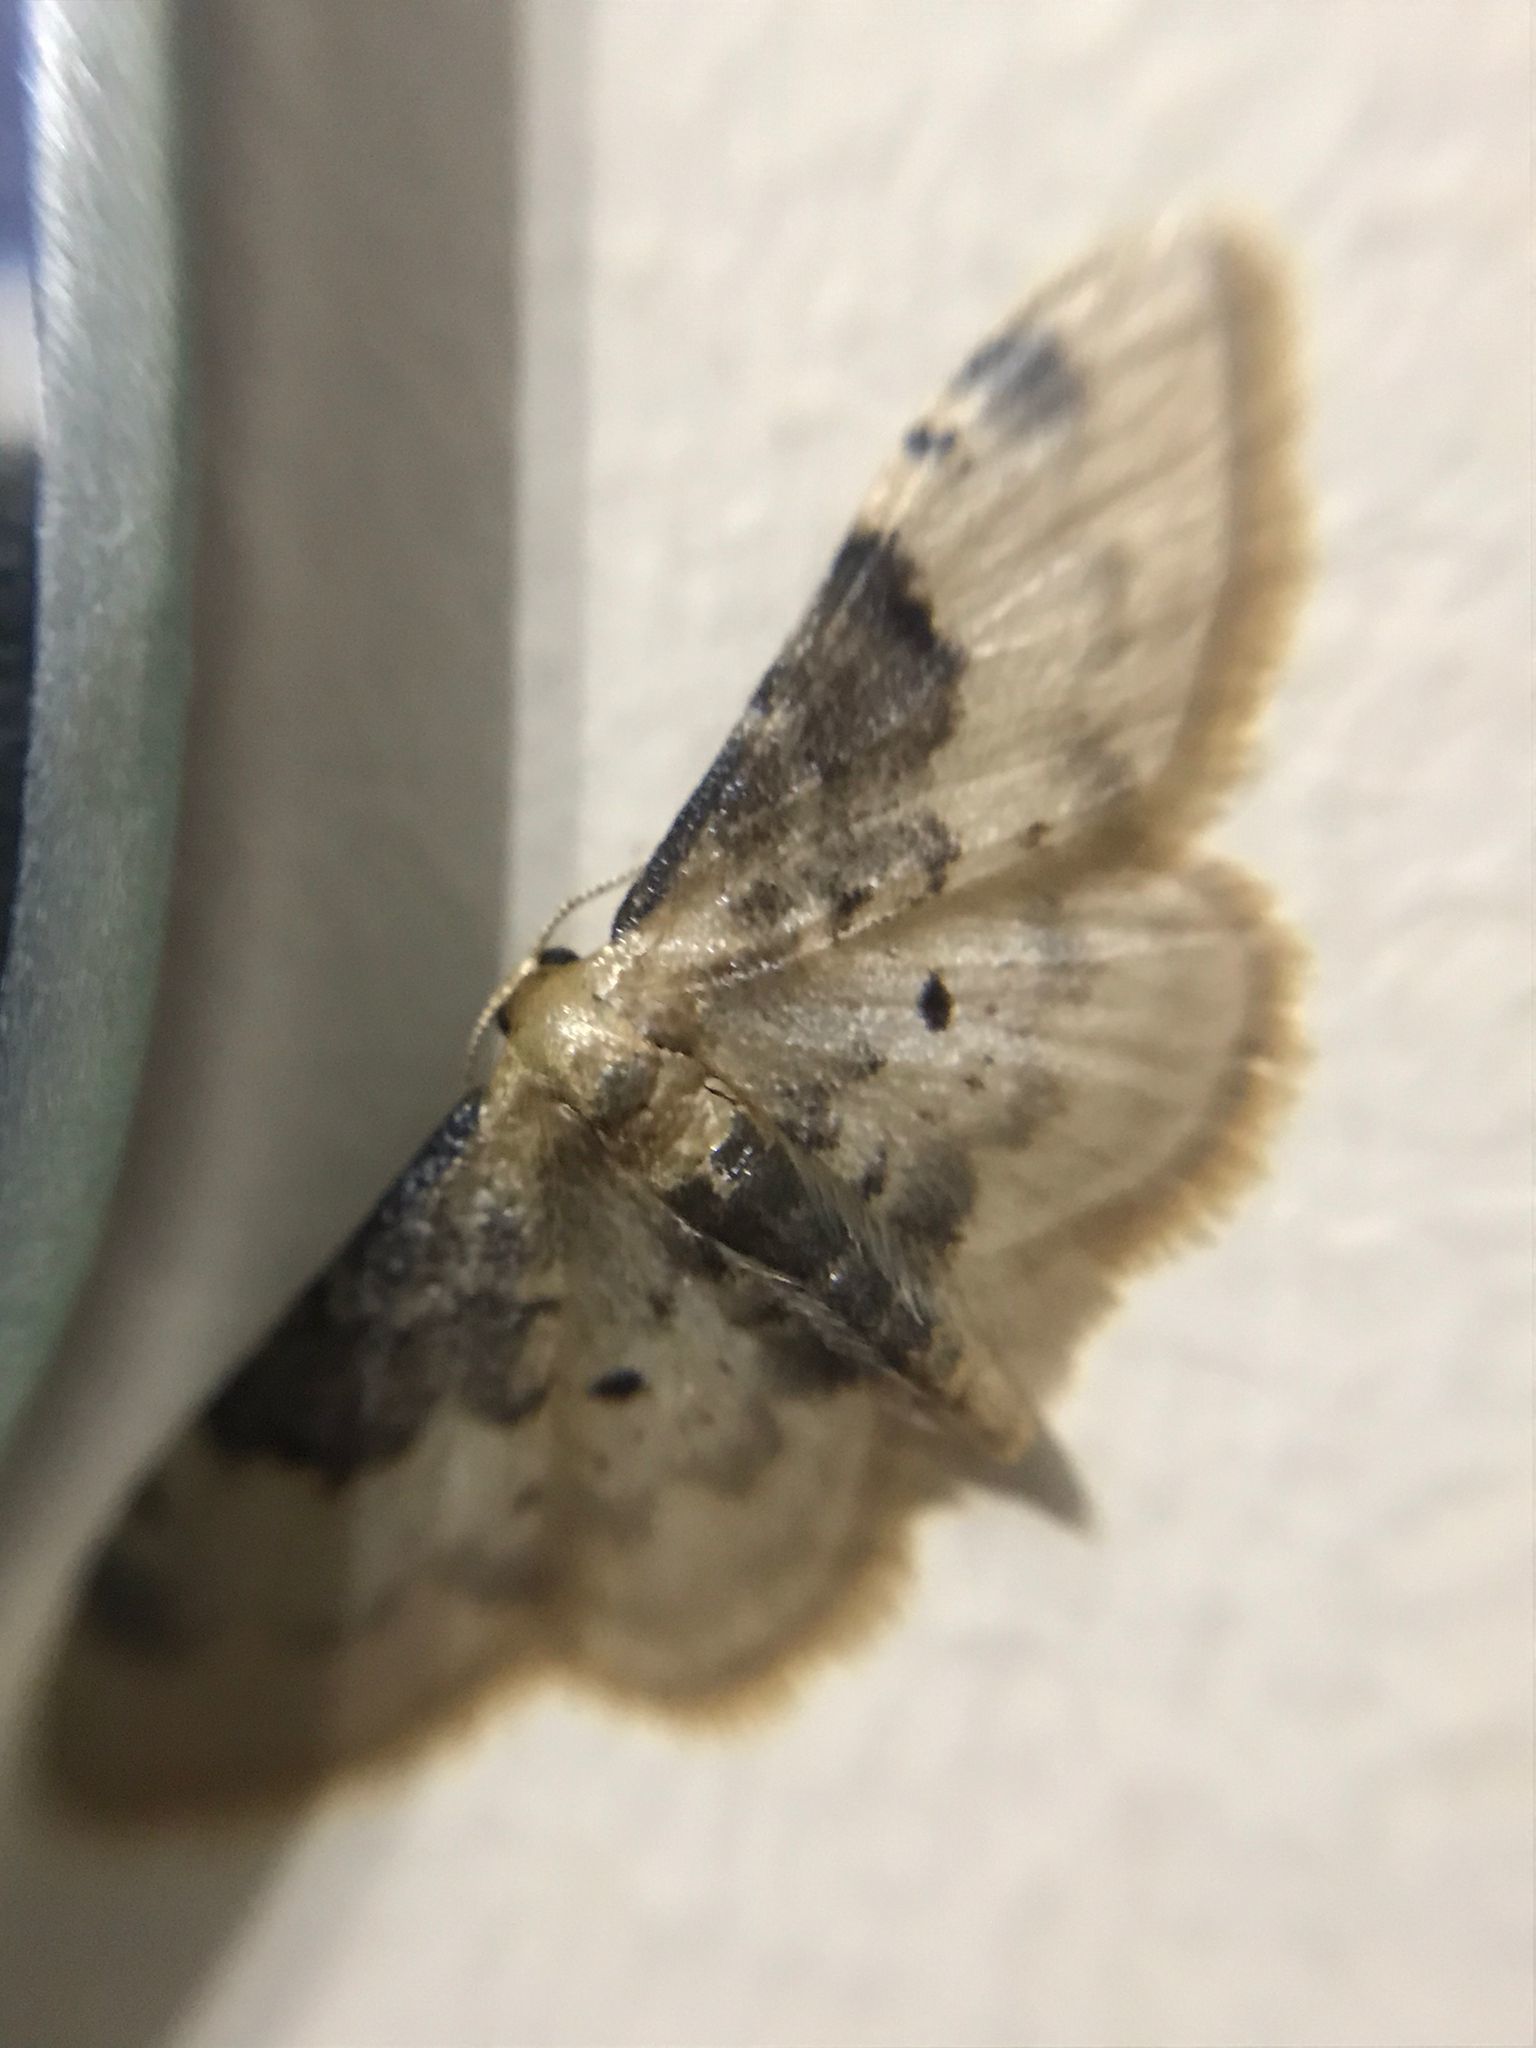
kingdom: Animalia
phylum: Arthropoda
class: Insecta
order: Lepidoptera
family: Geometridae
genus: Idaea
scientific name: Idaea filicata
